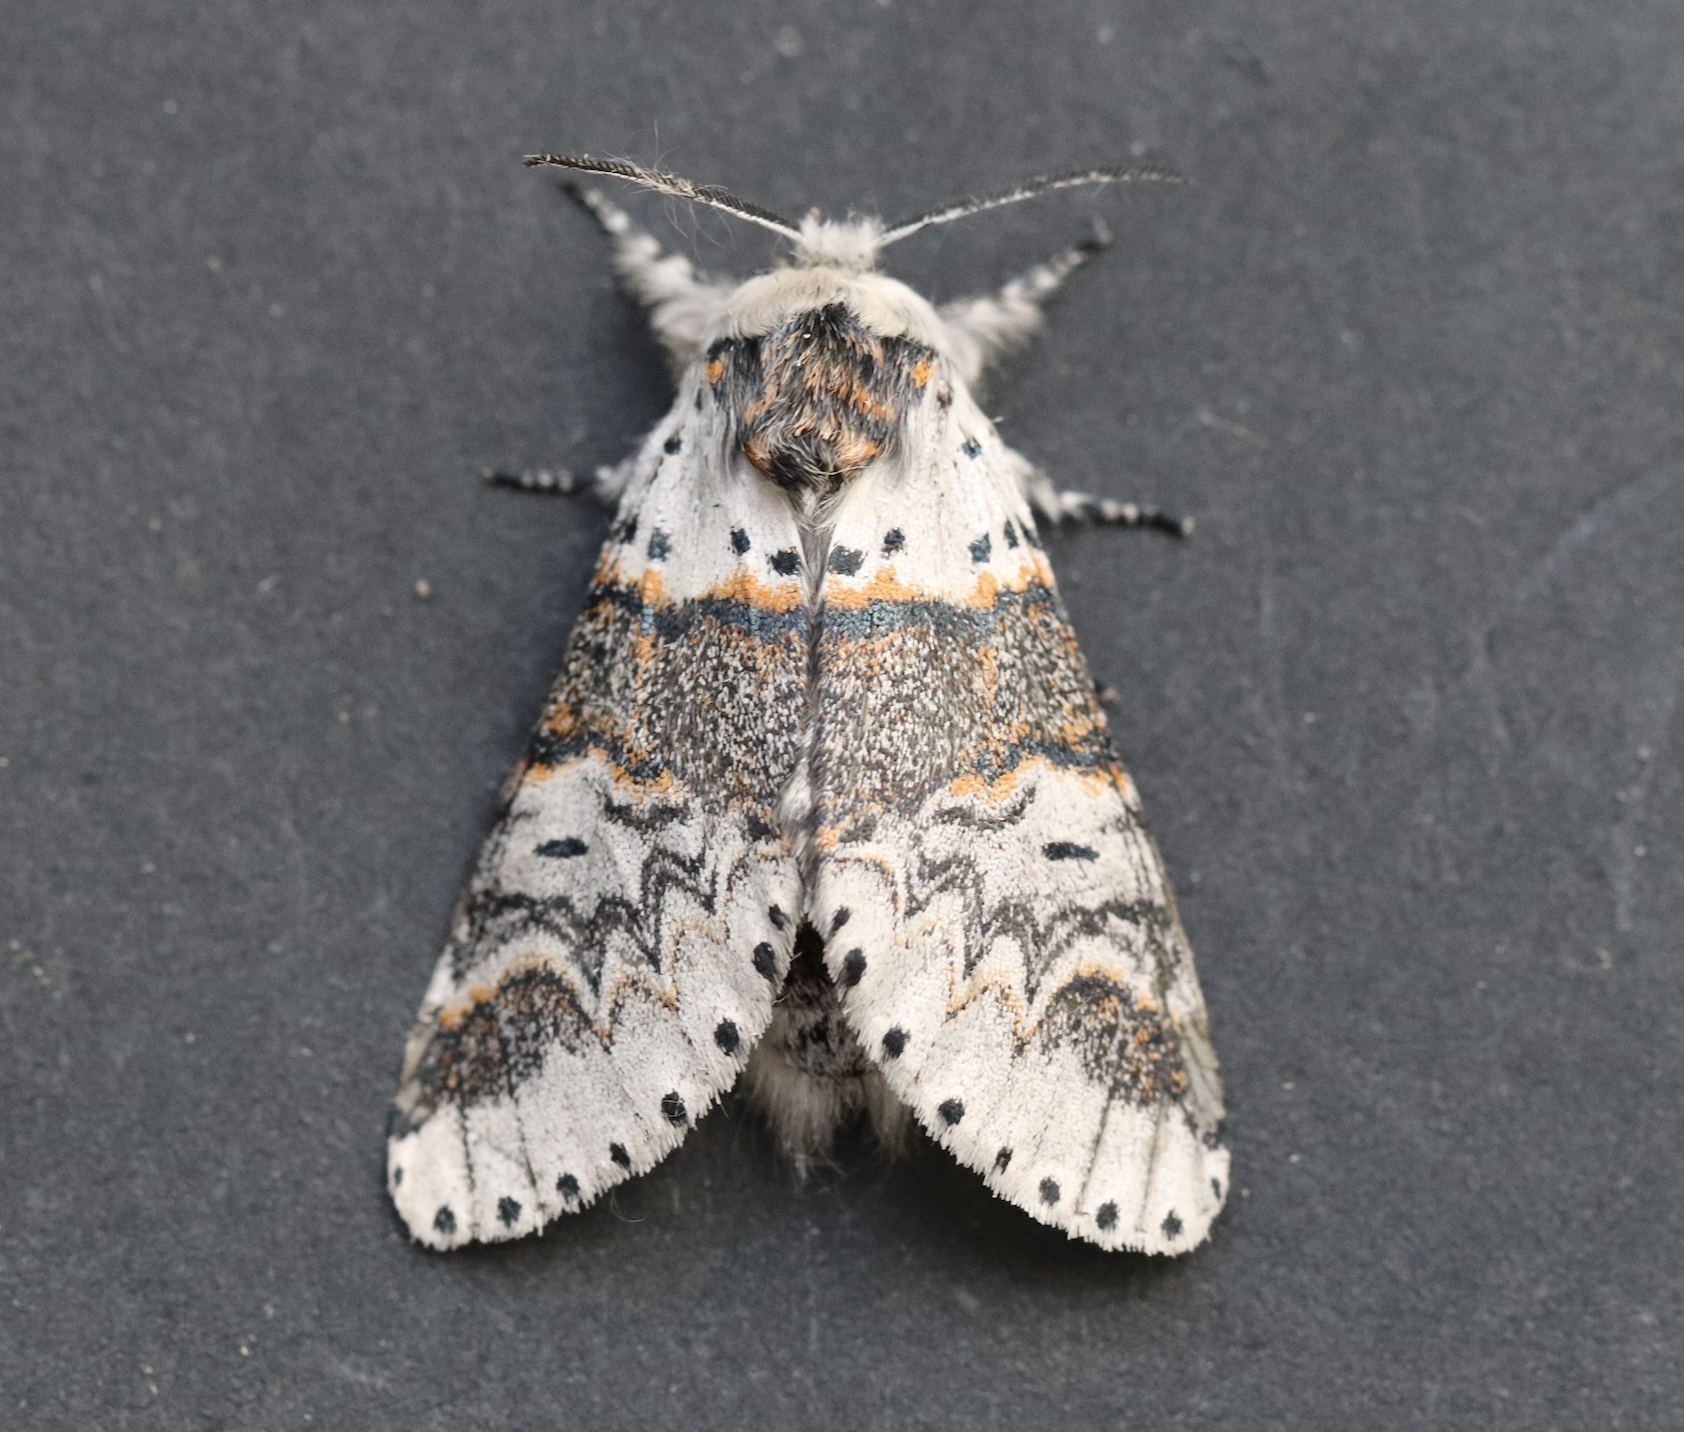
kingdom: Animalia
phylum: Arthropoda
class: Insecta
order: Lepidoptera
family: Notodontidae
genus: Furcula
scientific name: Furcula furcula
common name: Sallow kitten
